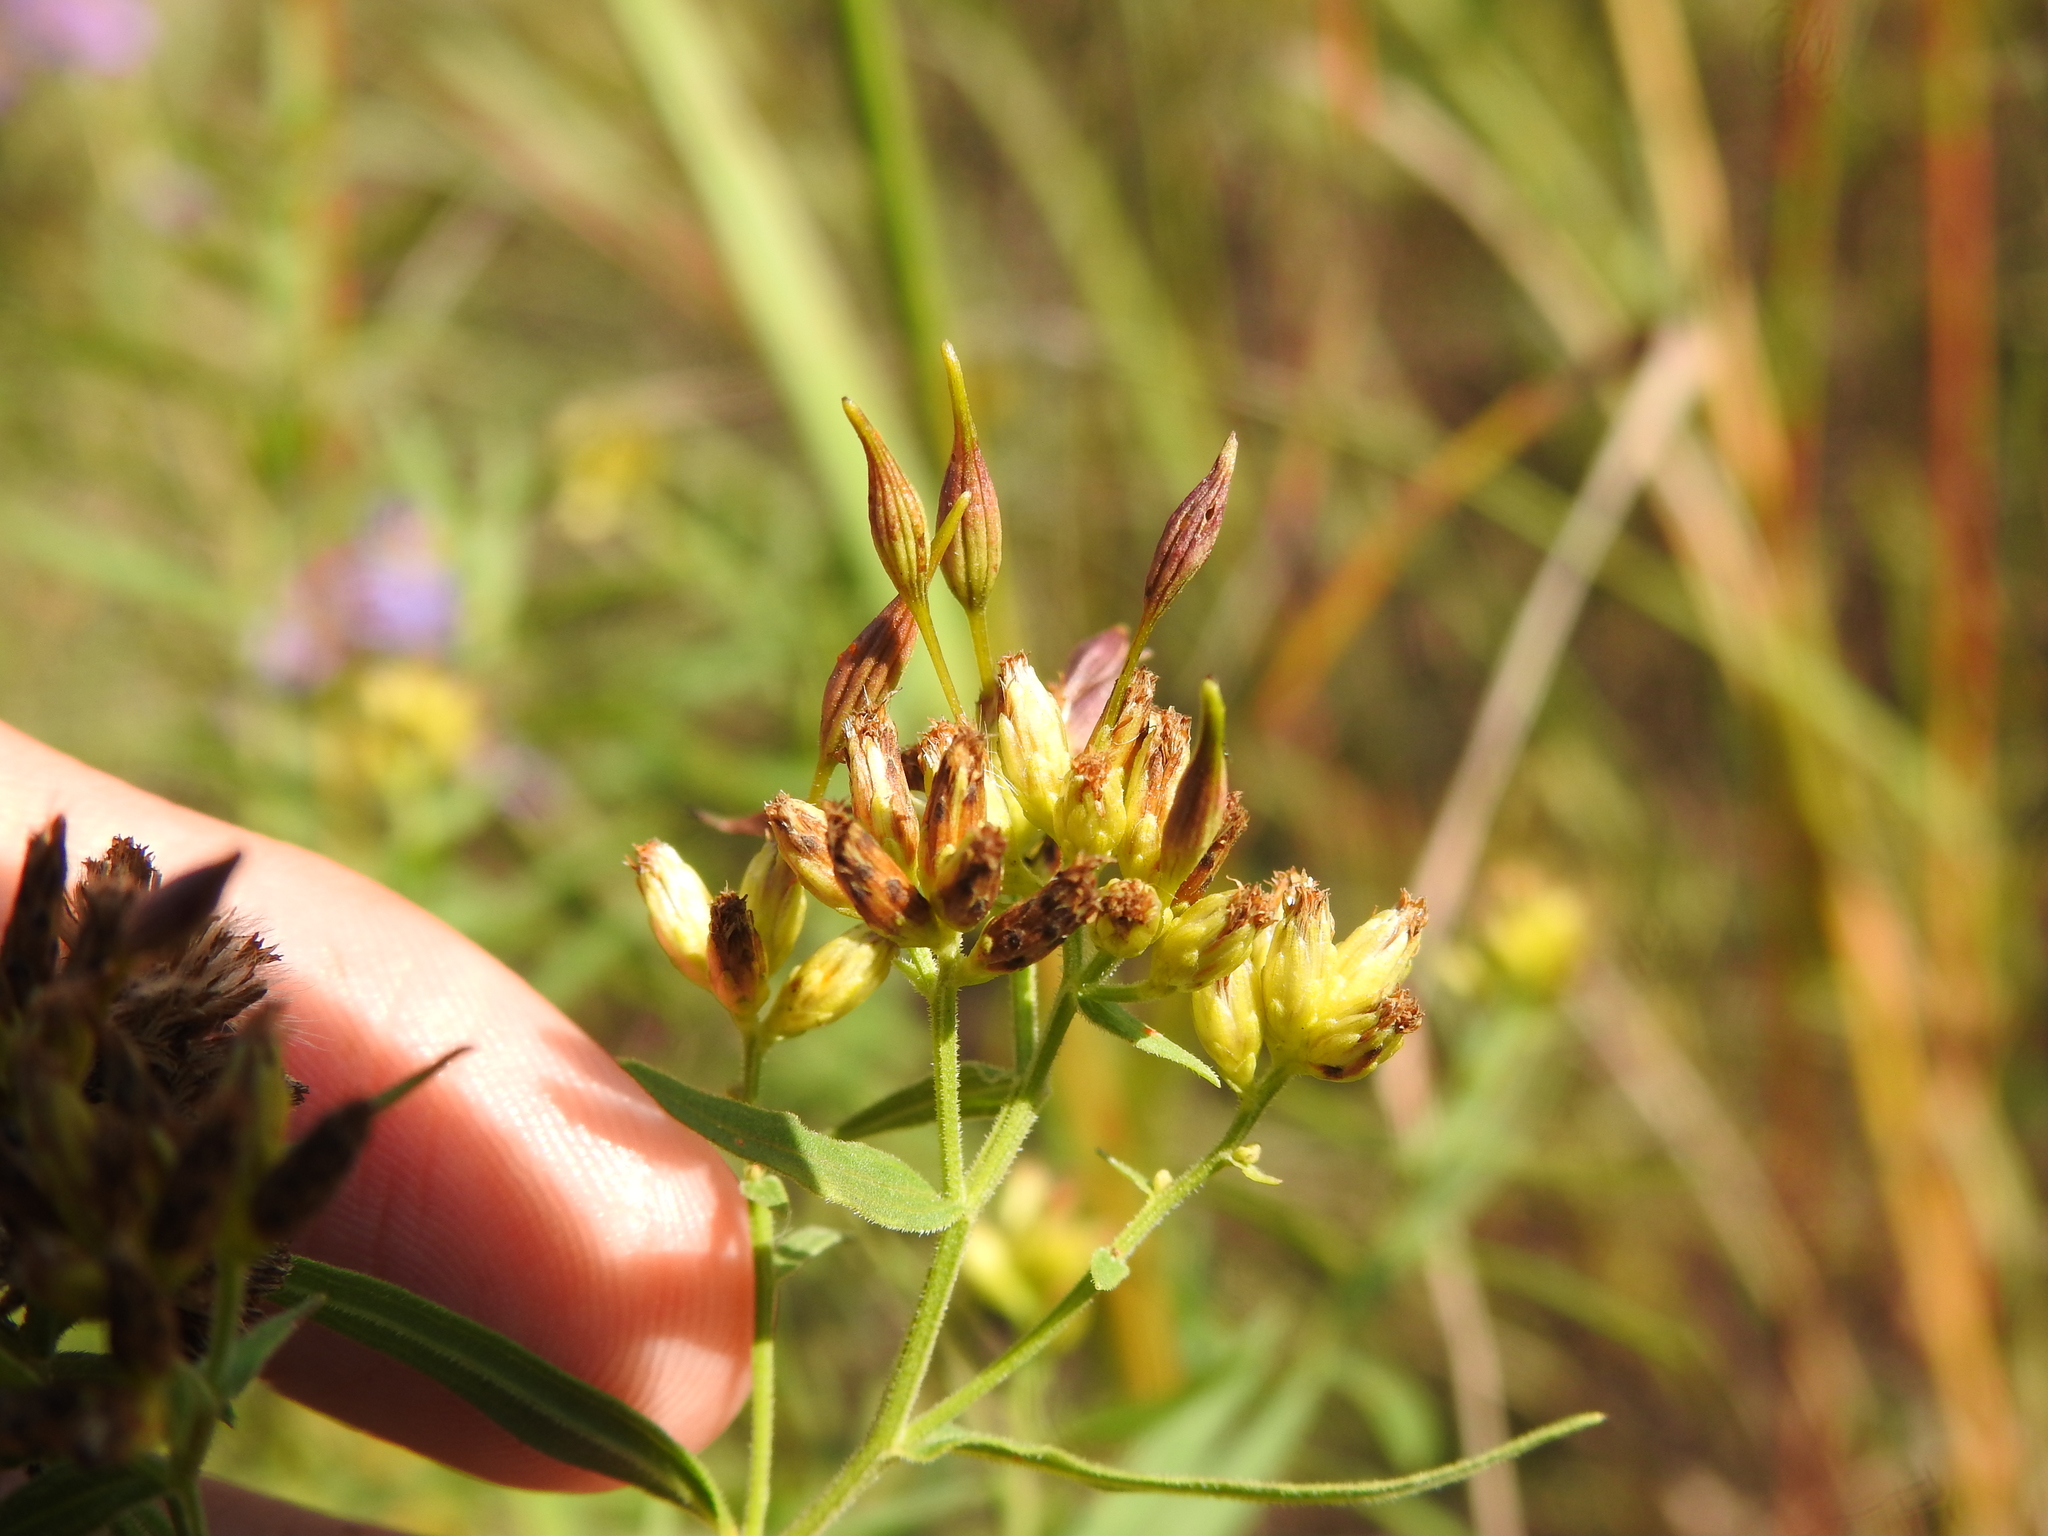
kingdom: Animalia
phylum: Arthropoda
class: Insecta
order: Diptera
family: Cecidomyiidae
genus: Rhopalomyia
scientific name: Rhopalomyia pedicellata
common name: Goldentop pedicellate gall midge
